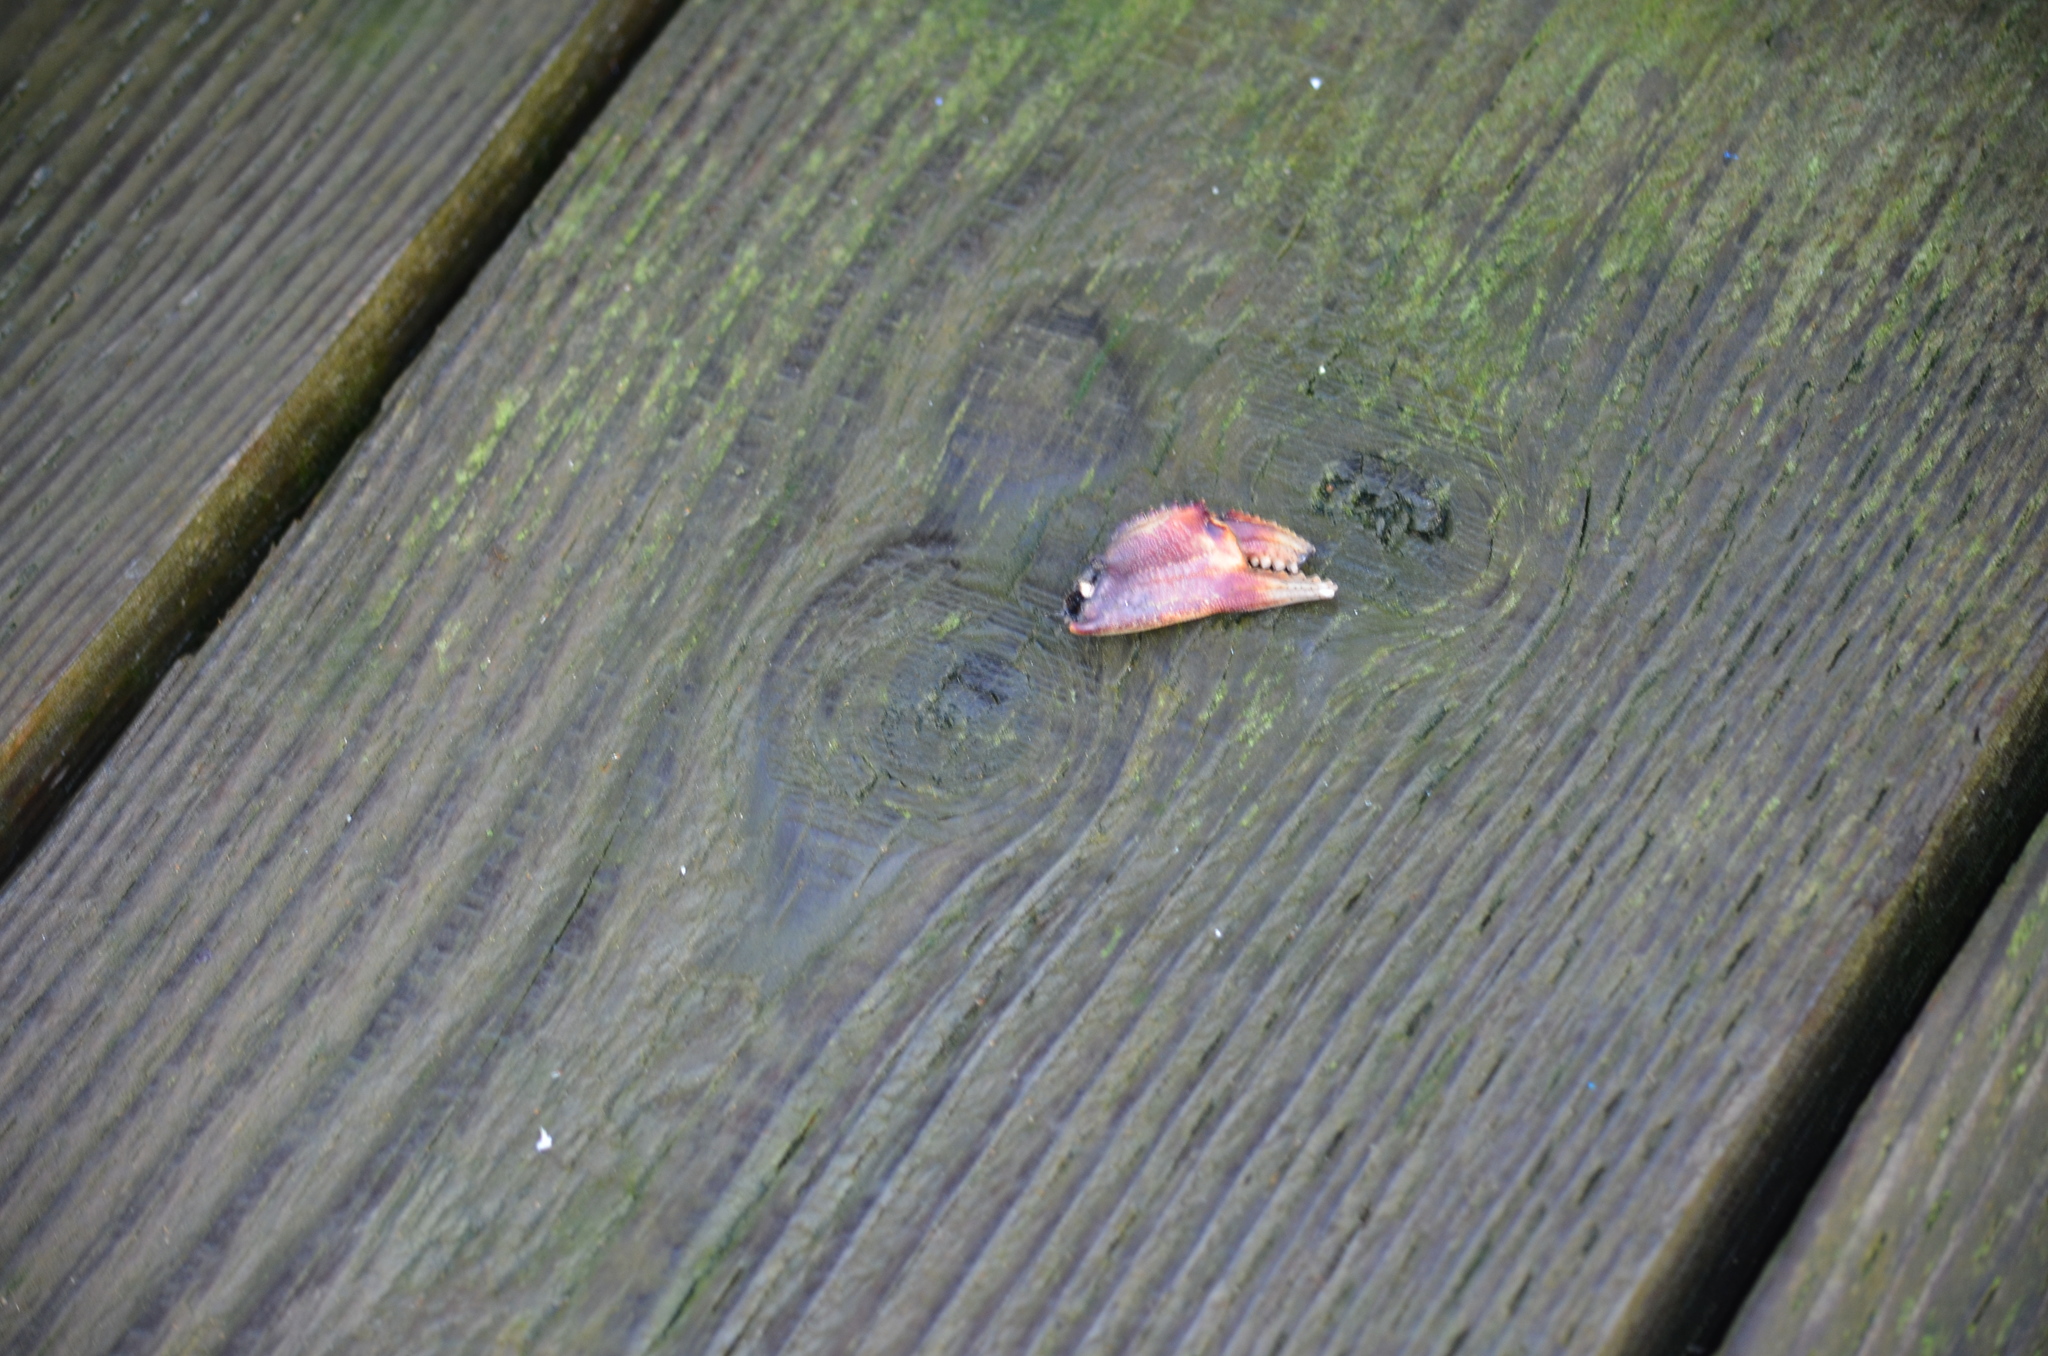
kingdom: Animalia
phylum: Arthropoda
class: Malacostraca
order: Decapoda
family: Cancridae
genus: Metacarcinus
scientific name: Metacarcinus magister
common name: Californian crab
